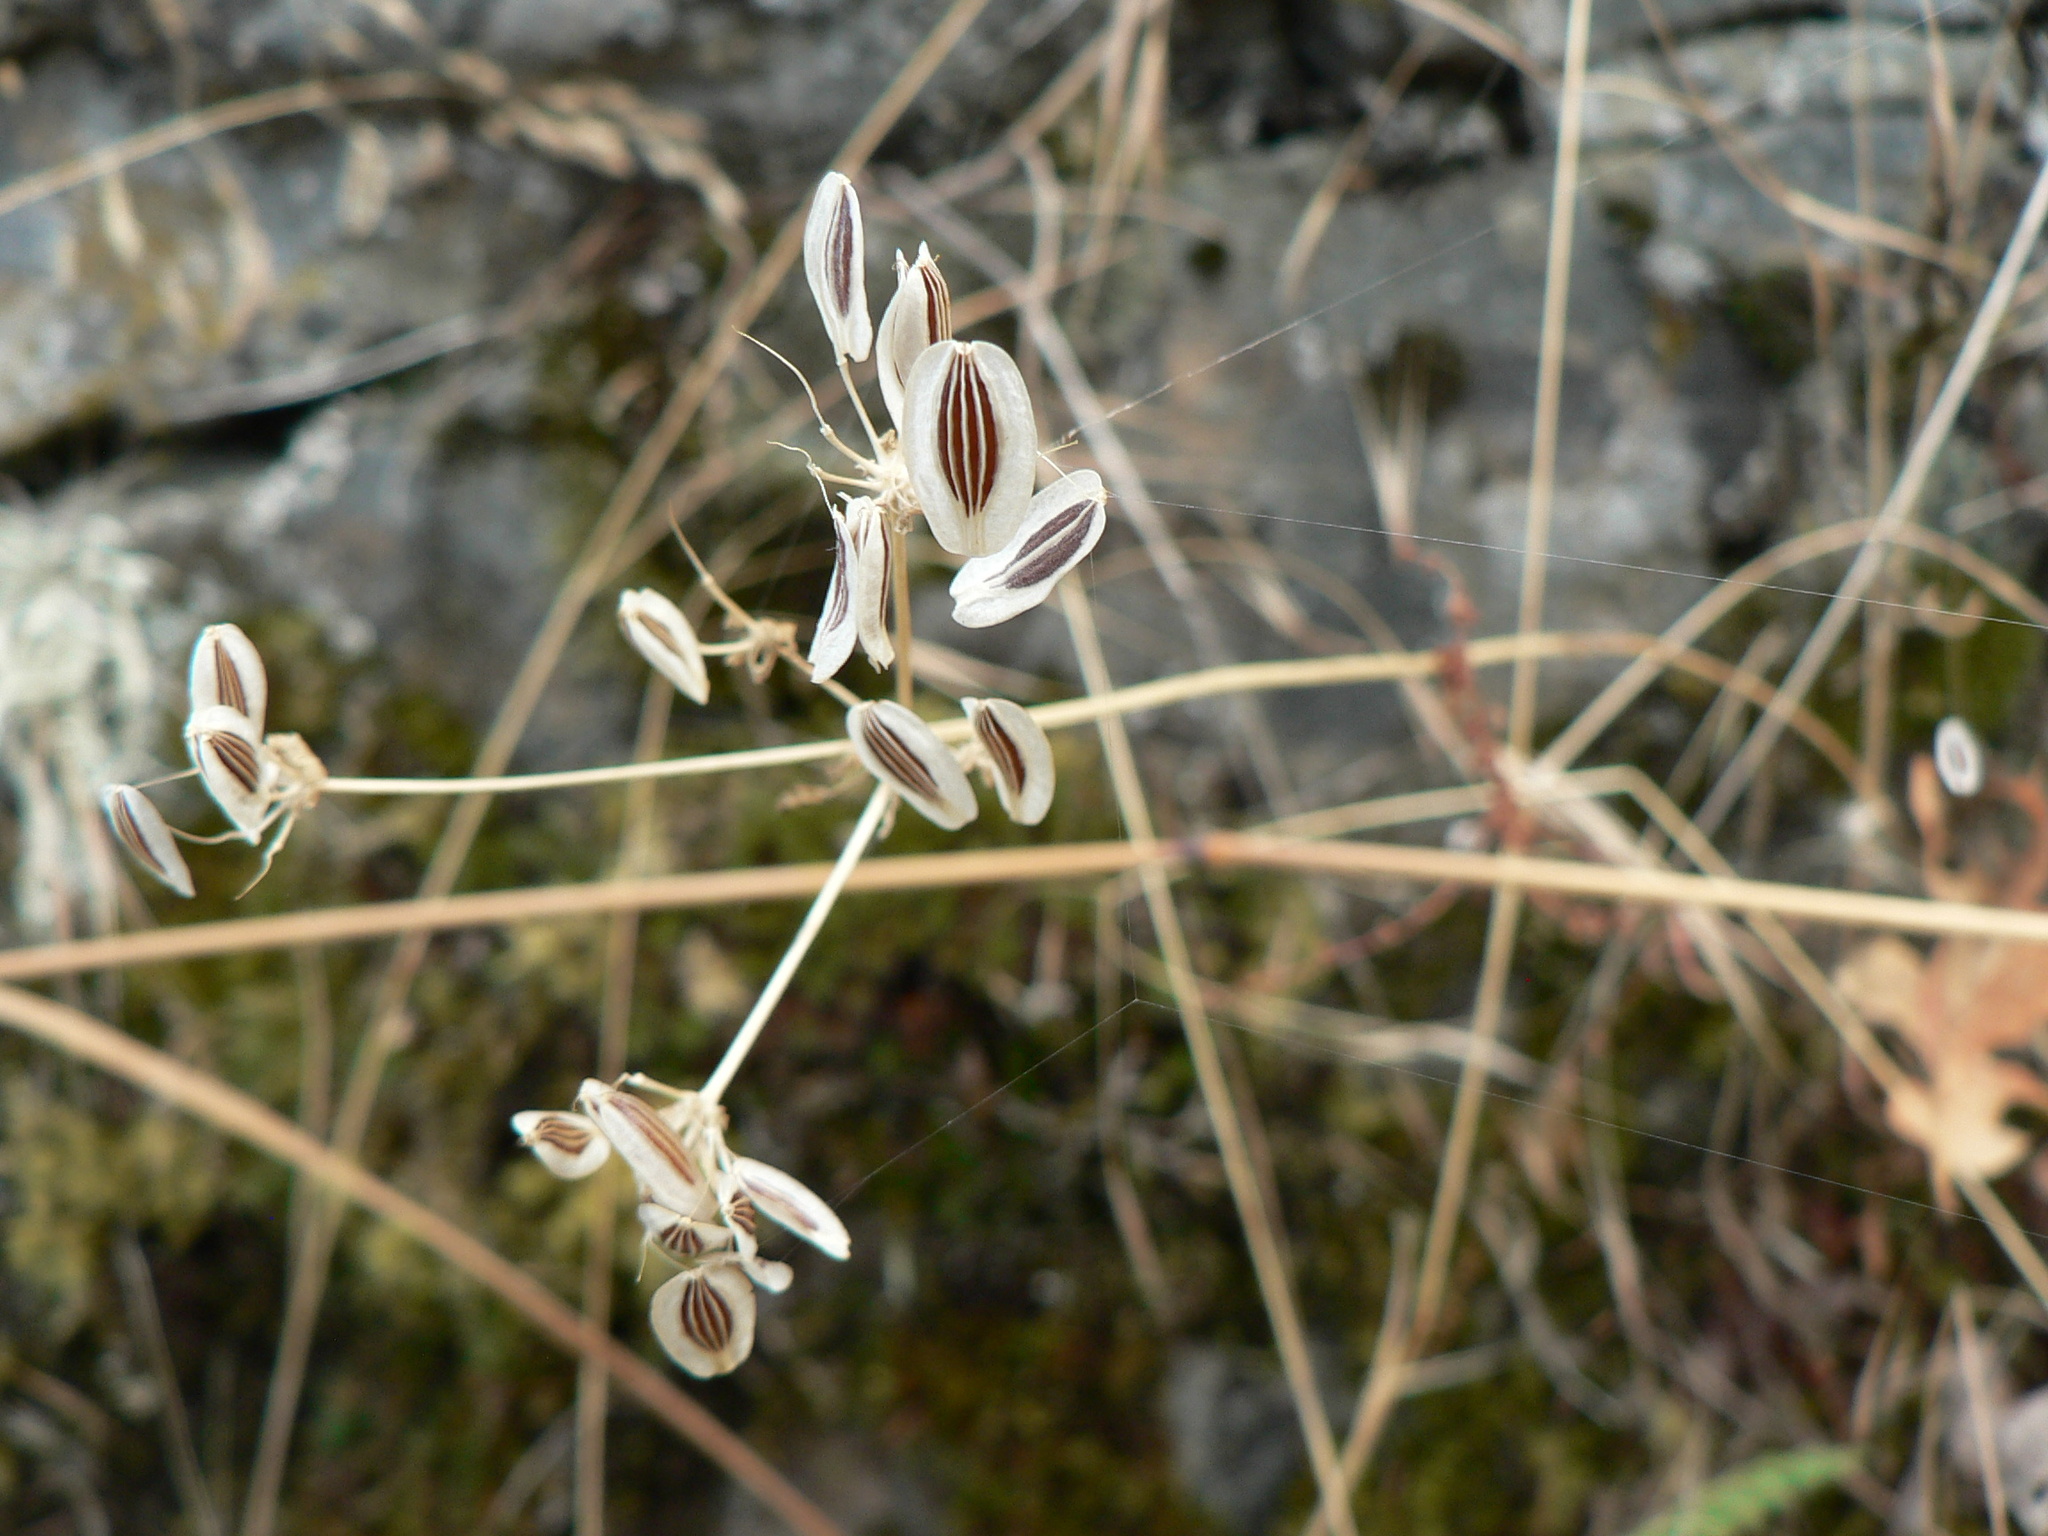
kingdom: Plantae
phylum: Tracheophyta
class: Magnoliopsida
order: Apiales
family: Apiaceae
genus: Lomatium
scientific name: Lomatium utriculatum
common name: Fine-leaf desert-parsley
